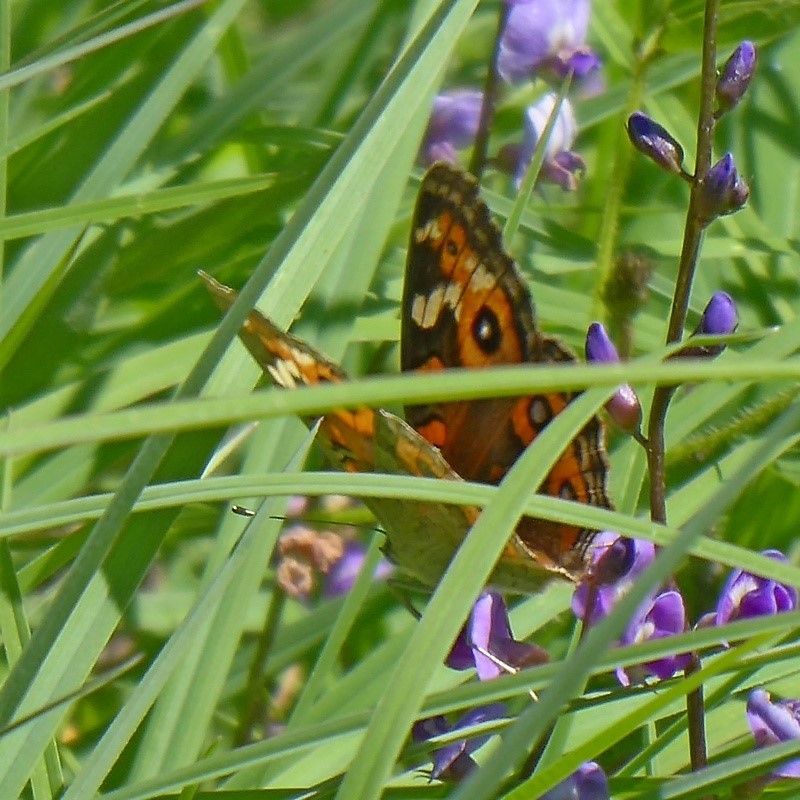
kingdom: Animalia
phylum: Arthropoda
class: Insecta
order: Lepidoptera
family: Nymphalidae
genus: Junonia
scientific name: Junonia villida
